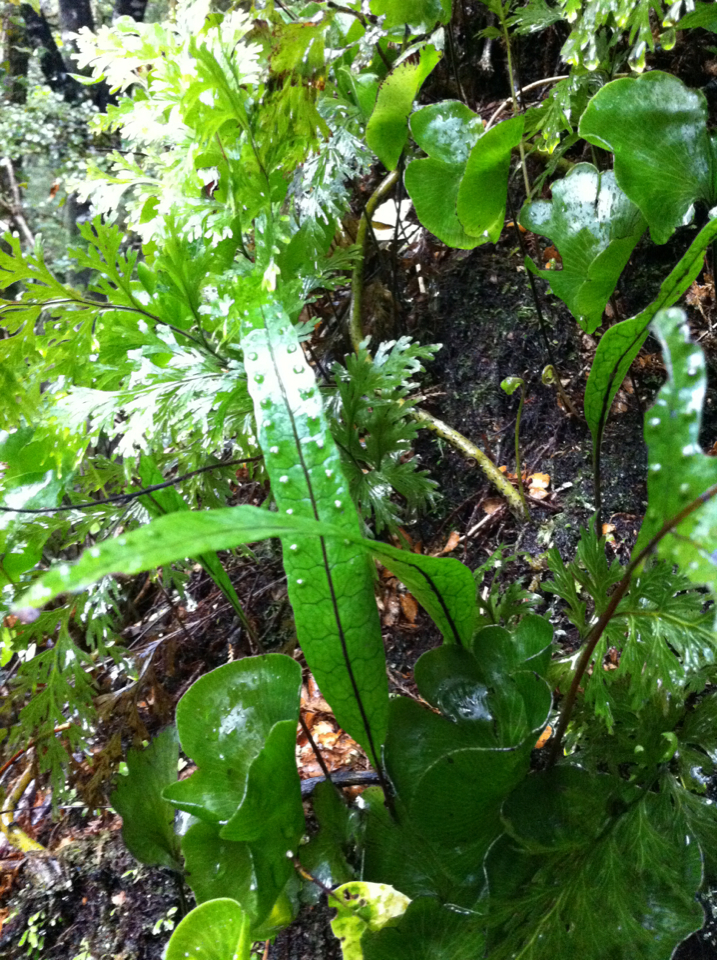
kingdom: Plantae
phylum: Tracheophyta
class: Polypodiopsida
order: Polypodiales
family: Polypodiaceae
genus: Lecanopteris
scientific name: Lecanopteris pustulata
